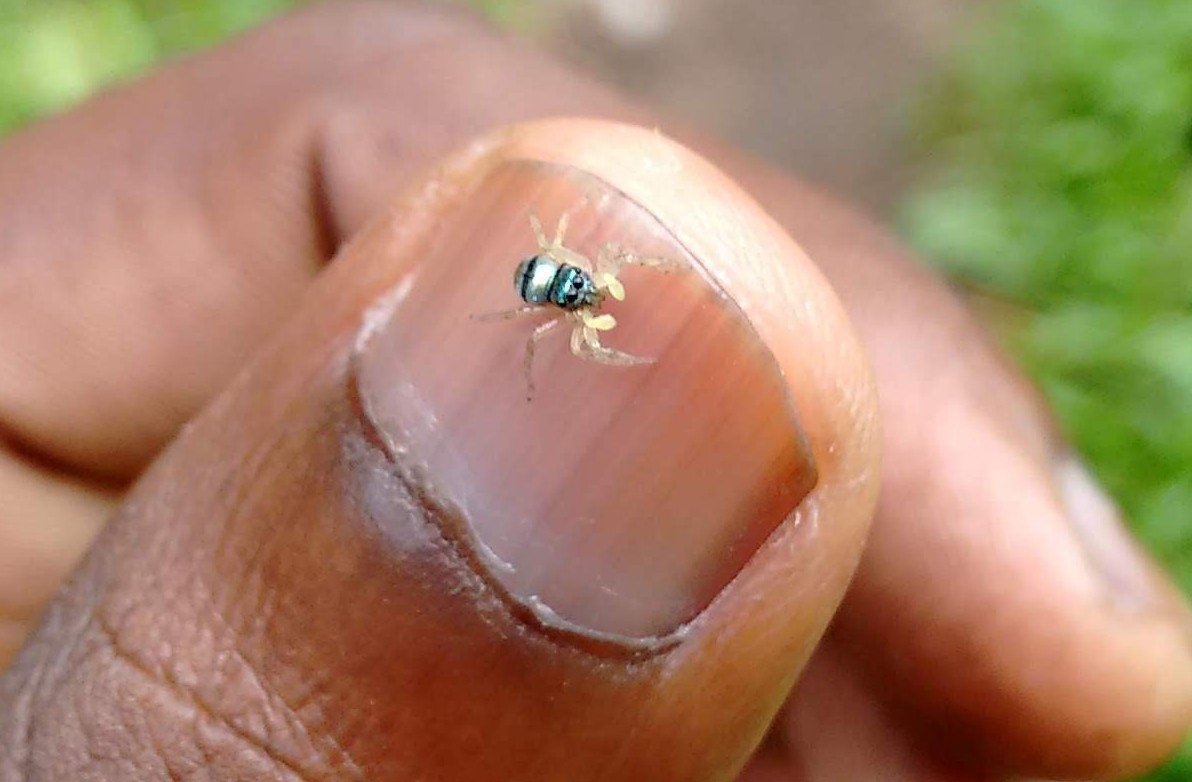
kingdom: Animalia
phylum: Arthropoda
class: Arachnida
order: Araneae
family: Salticidae
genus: Phintella
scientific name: Phintella vittata
